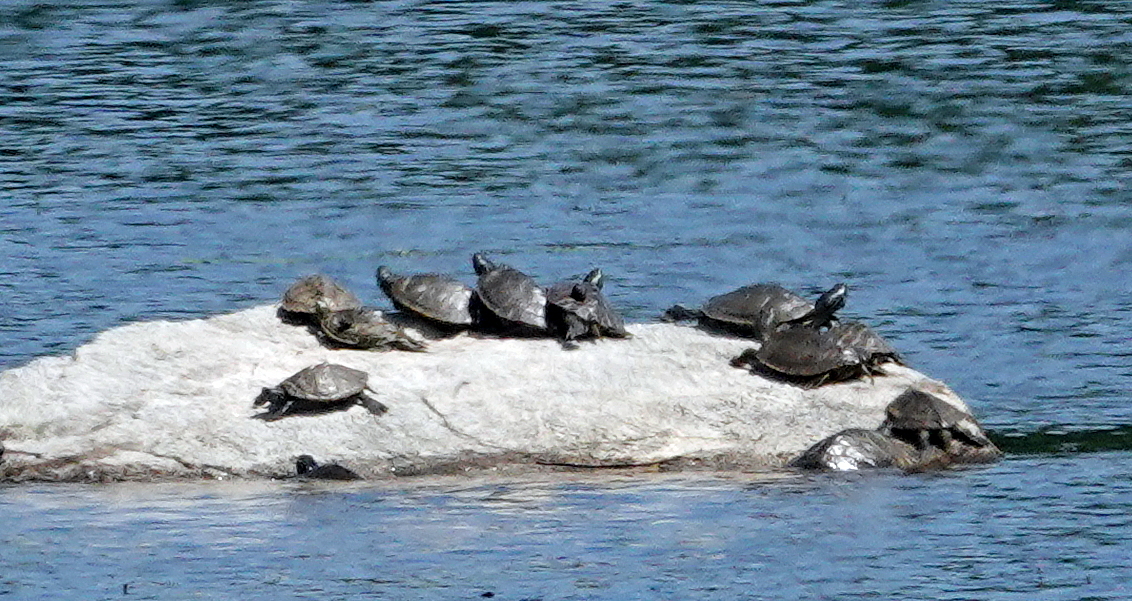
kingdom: Animalia
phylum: Chordata
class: Testudines
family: Emydidae
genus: Graptemys
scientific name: Graptemys geographica
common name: Common map turtle
